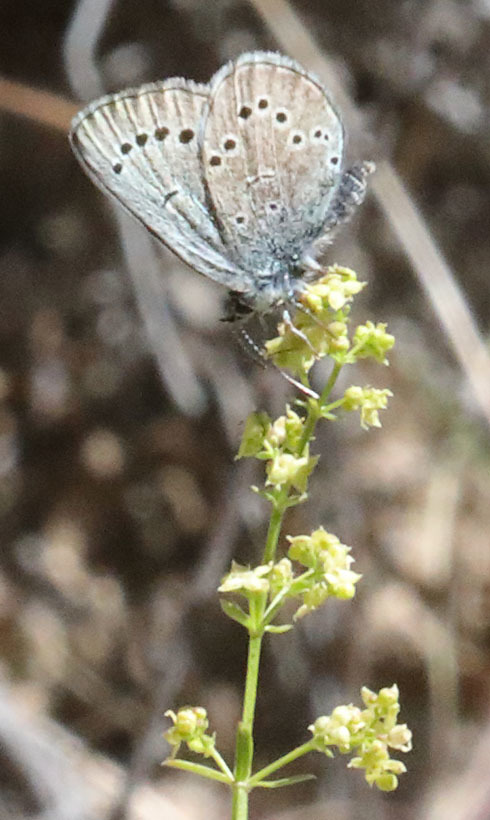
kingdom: Animalia
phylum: Arthropoda
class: Insecta
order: Lepidoptera
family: Lycaenidae
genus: Glaucopsyche
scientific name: Glaucopsyche lygdamus
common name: Silvery blue
